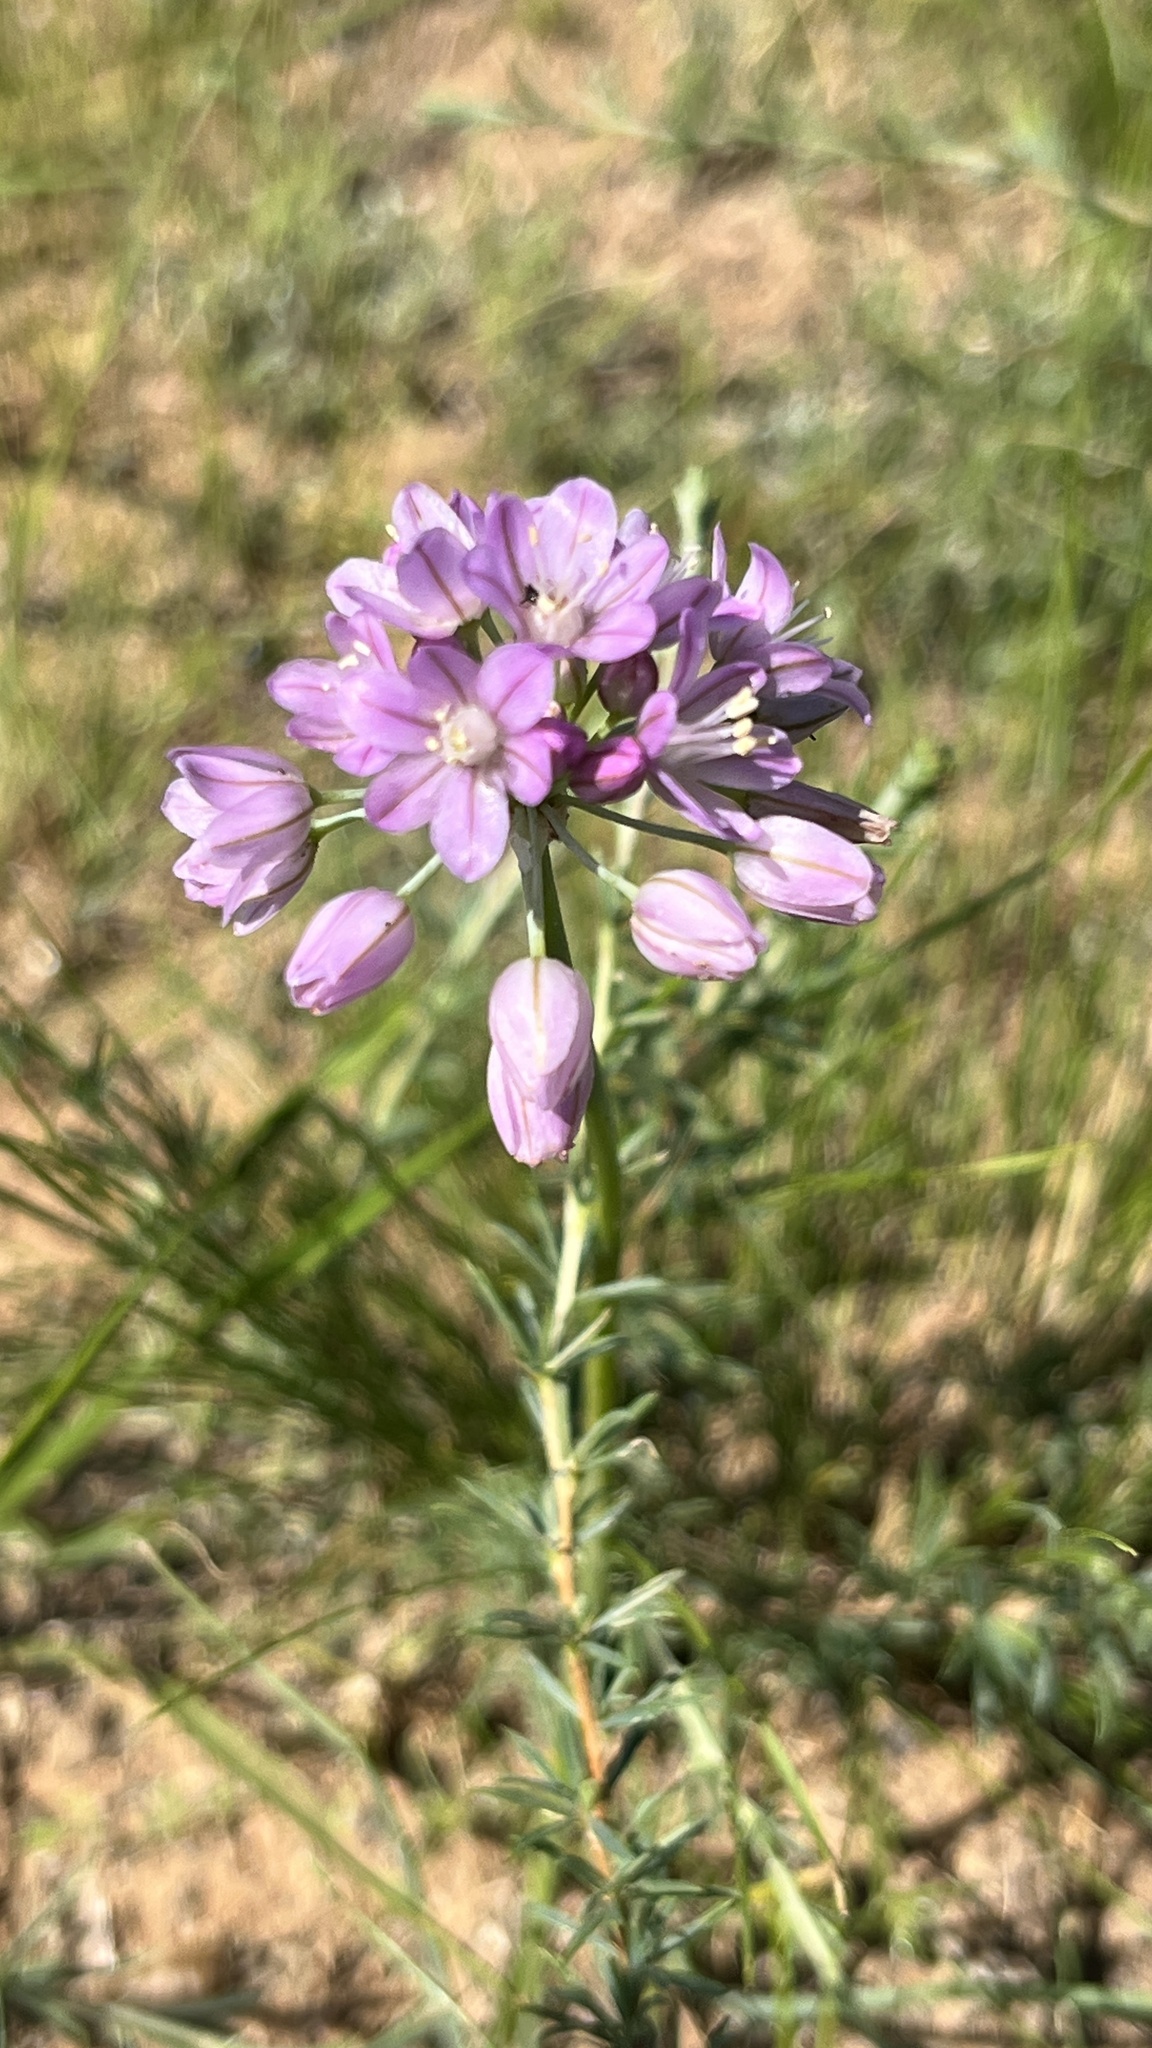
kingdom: Plantae
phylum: Tracheophyta
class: Liliopsida
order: Asparagales
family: Amaryllidaceae
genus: Allium
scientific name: Allium mongolicum
